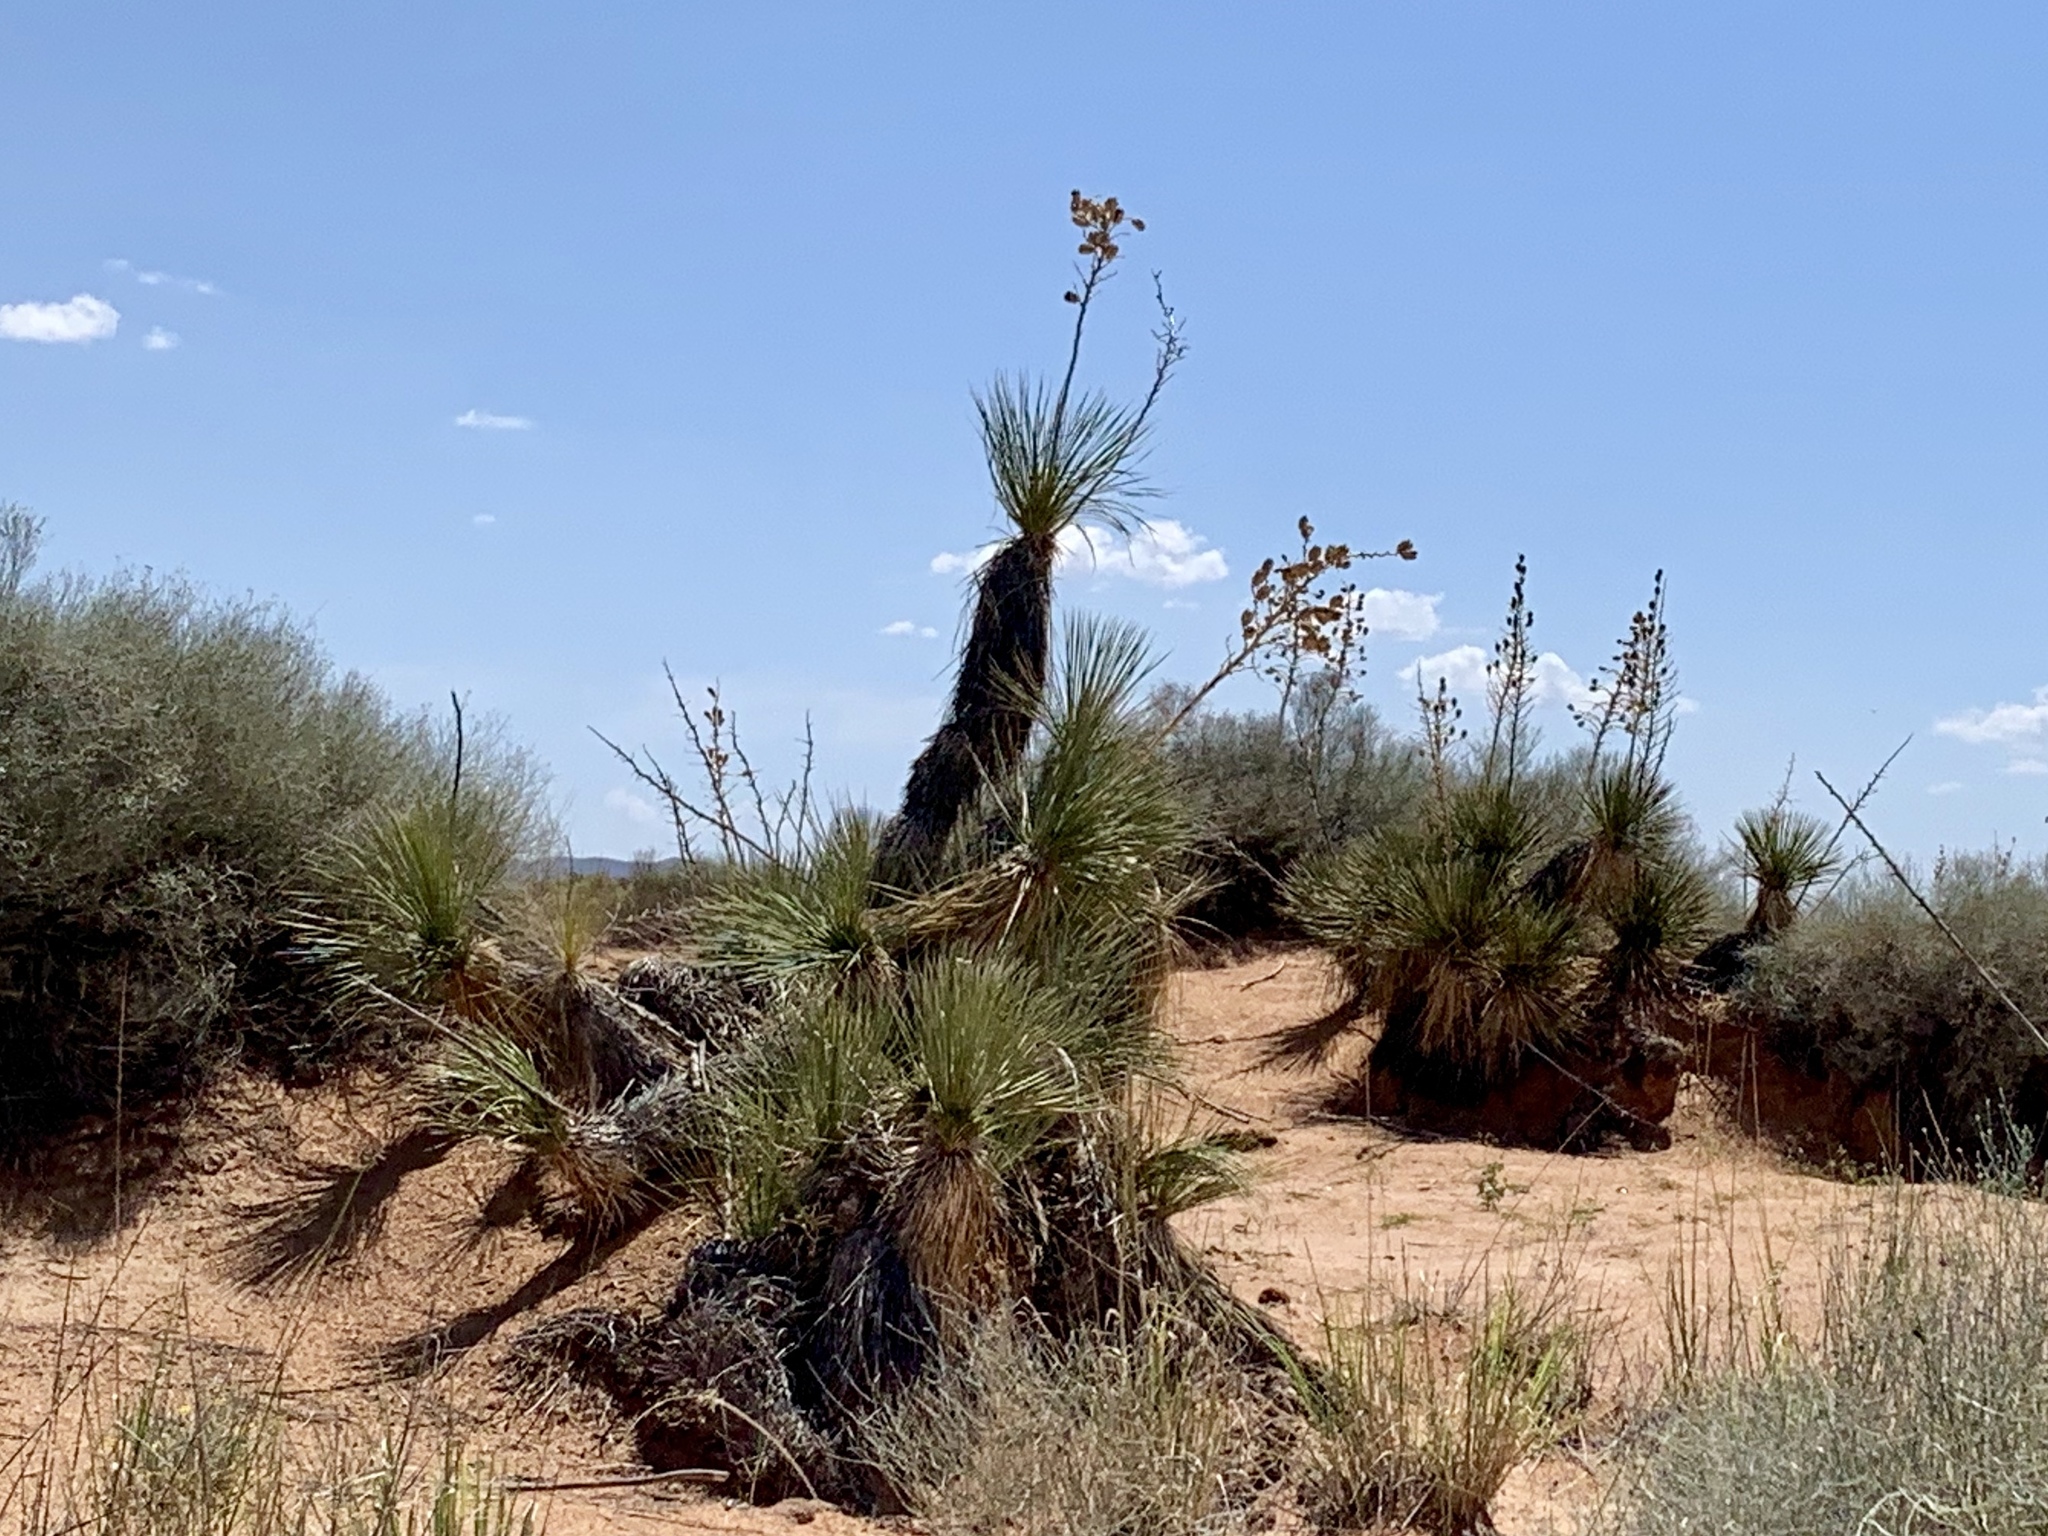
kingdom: Plantae
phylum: Tracheophyta
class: Liliopsida
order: Asparagales
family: Asparagaceae
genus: Yucca
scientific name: Yucca elata
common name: Palmella
